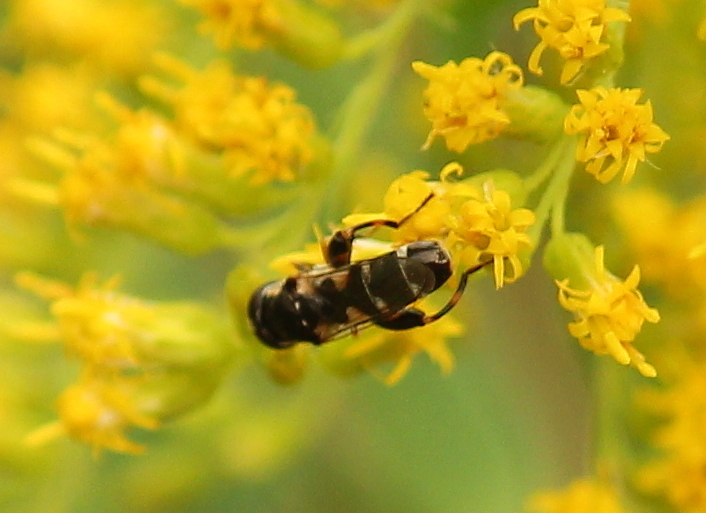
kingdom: Animalia
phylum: Arthropoda
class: Insecta
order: Diptera
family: Syrphidae
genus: Syritta
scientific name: Syritta pipiens
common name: Hover fly
